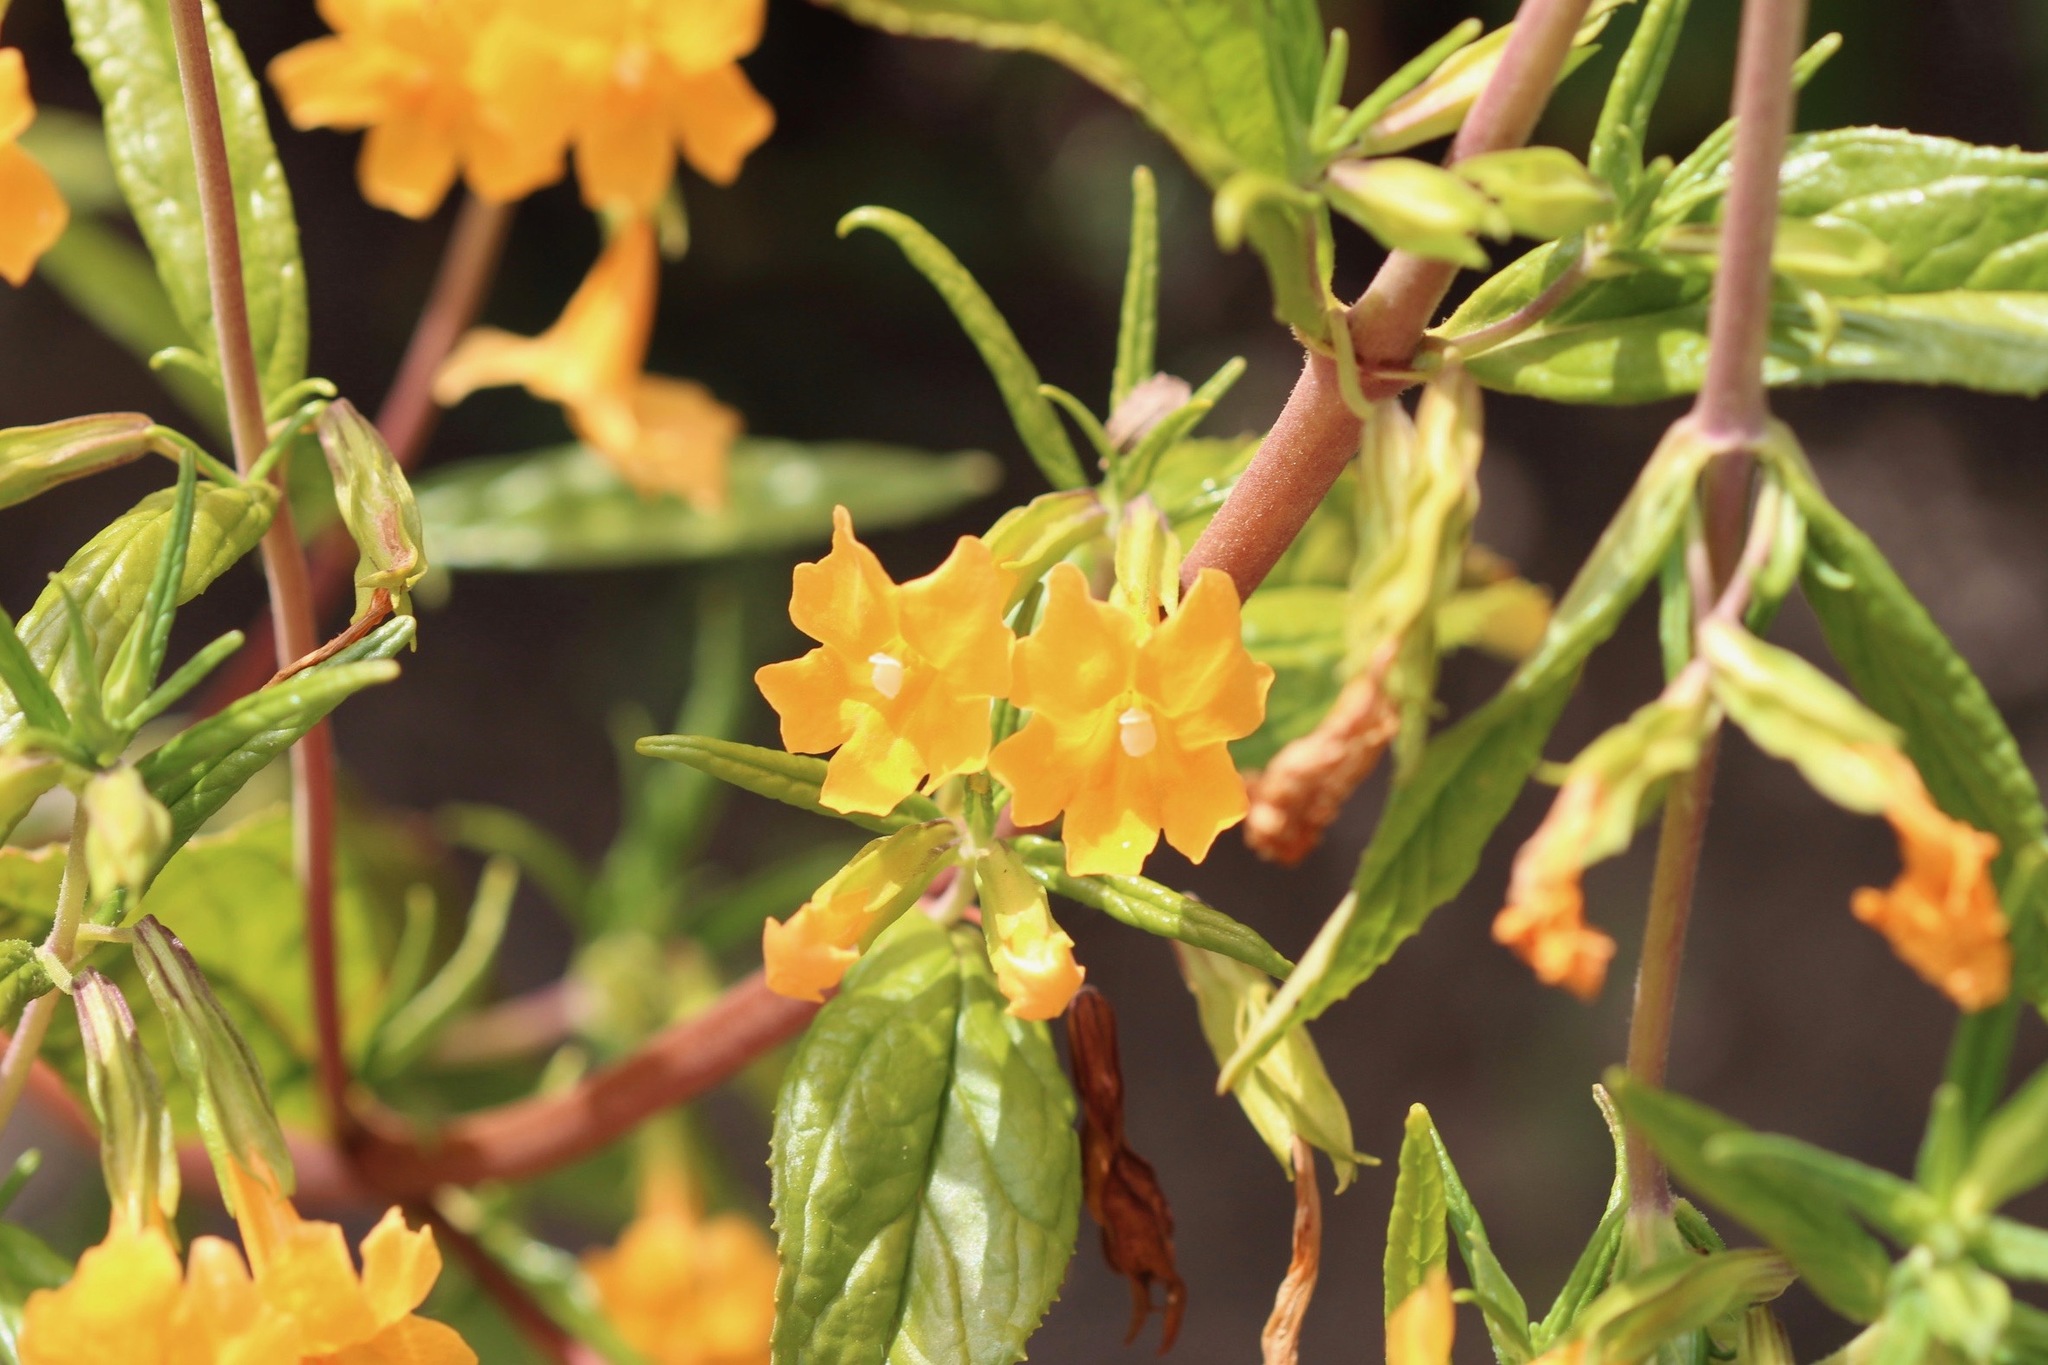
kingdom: Plantae
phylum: Tracheophyta
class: Magnoliopsida
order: Lamiales
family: Phrymaceae
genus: Diplacus
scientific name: Diplacus aurantiacus
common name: Bush monkey-flower
